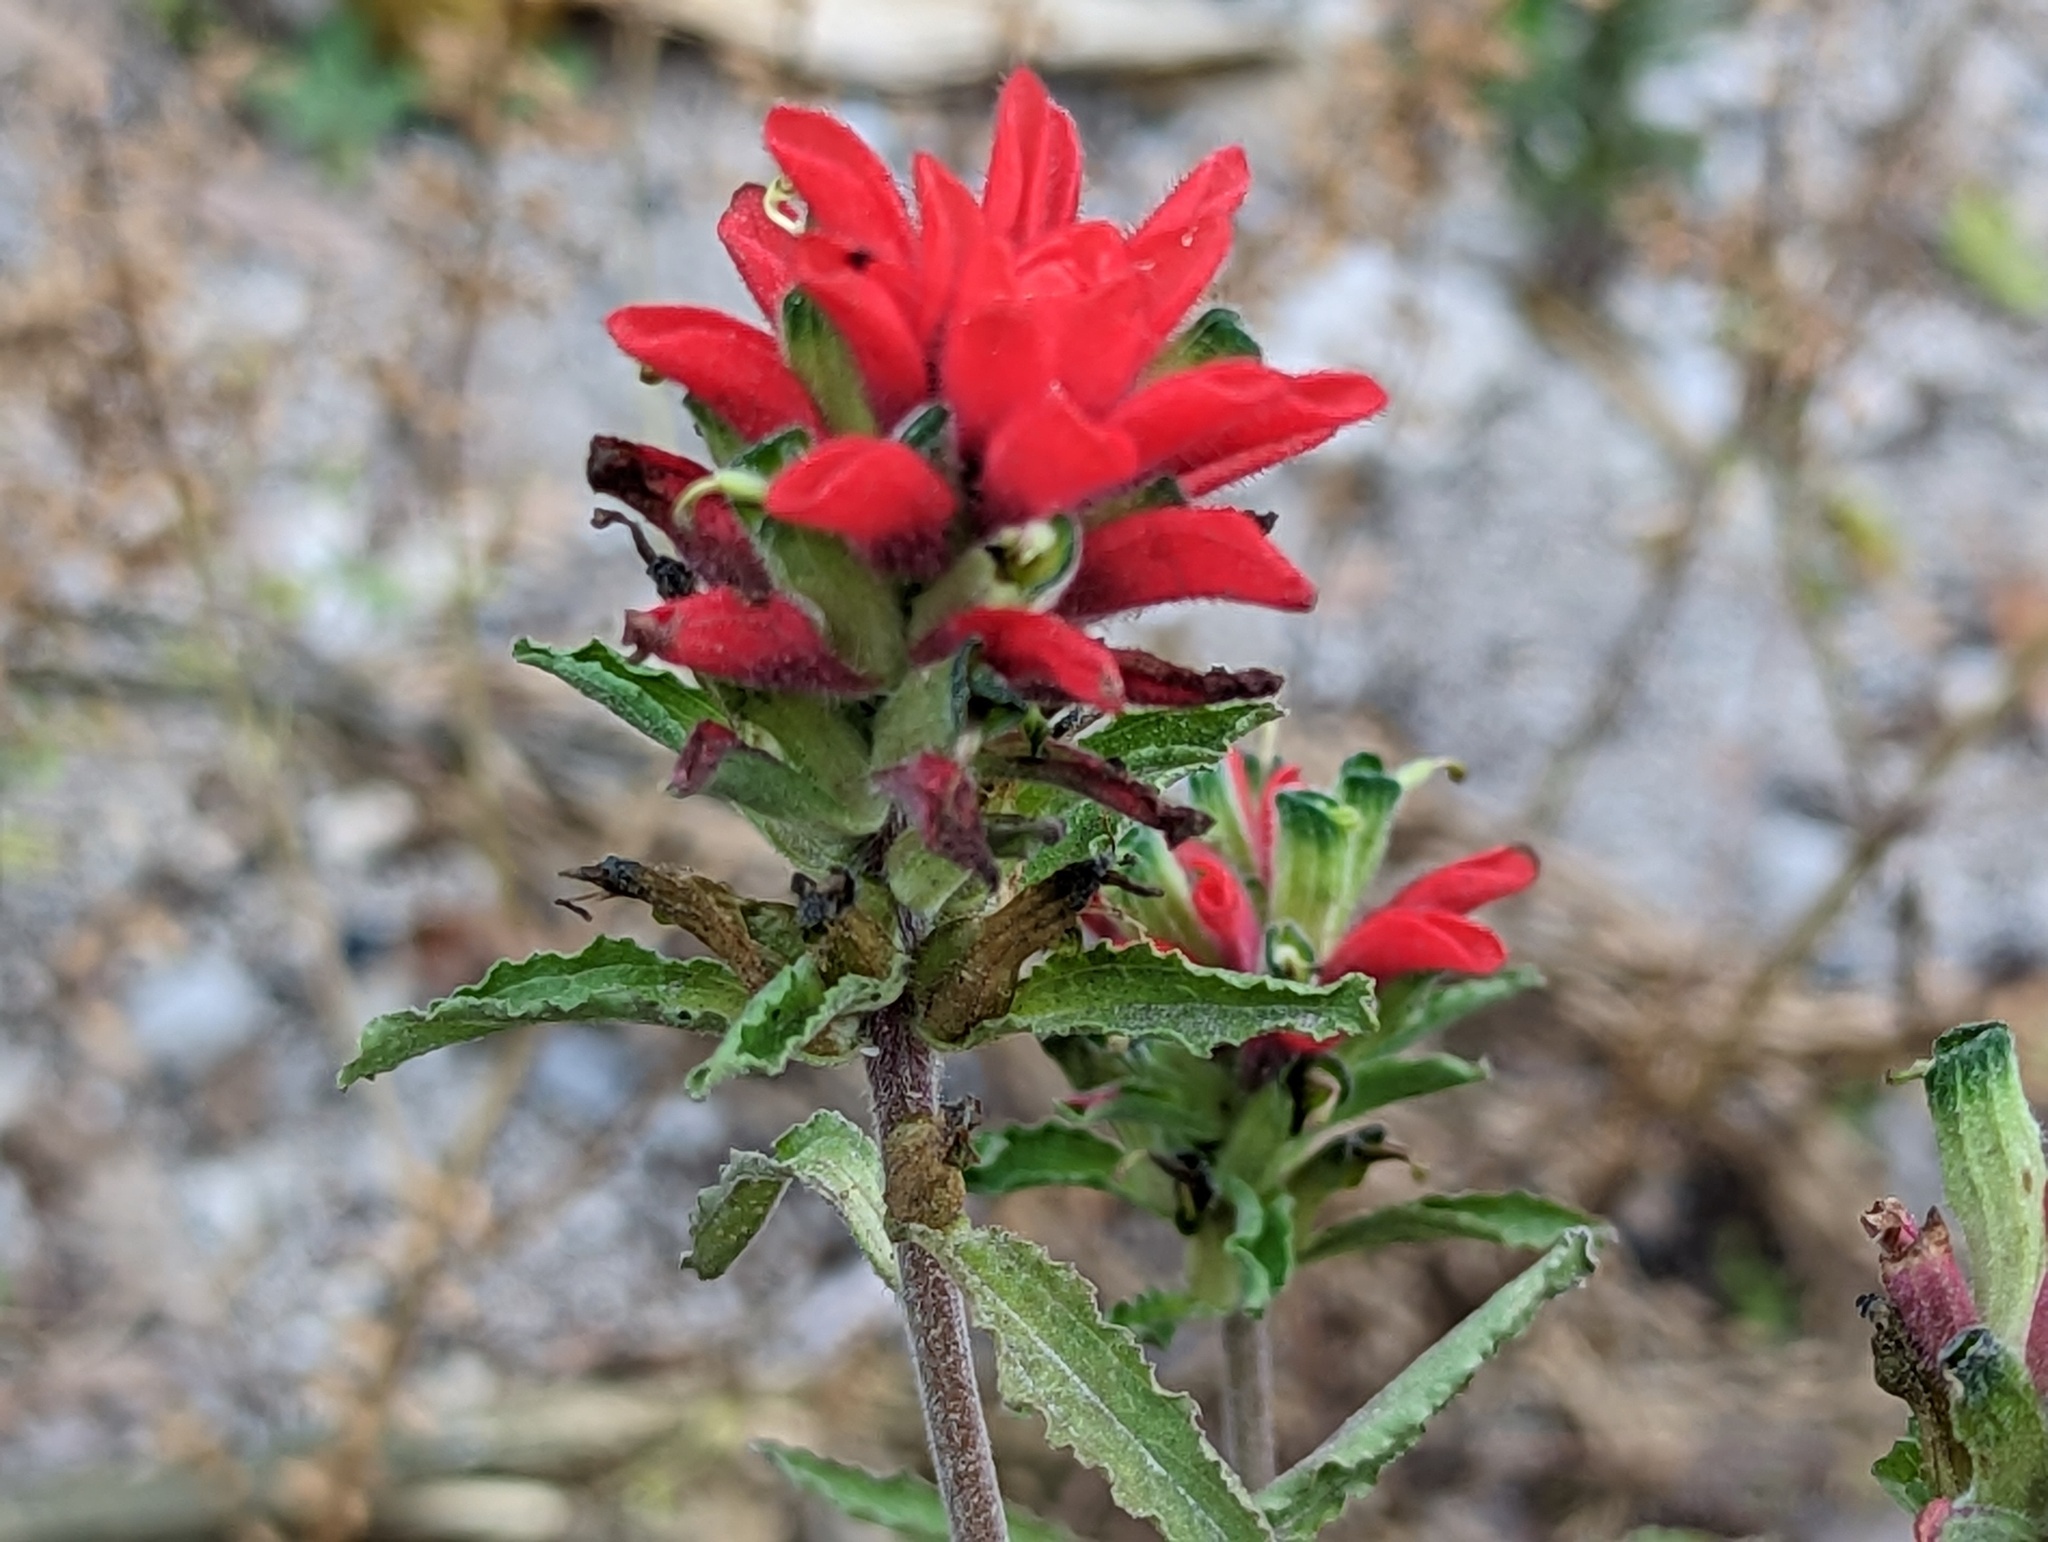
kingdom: Plantae
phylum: Tracheophyta
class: Magnoliopsida
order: Lamiales
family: Orobanchaceae
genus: Castilleja
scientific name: Castilleja arvensis
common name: Indian paintbrush
